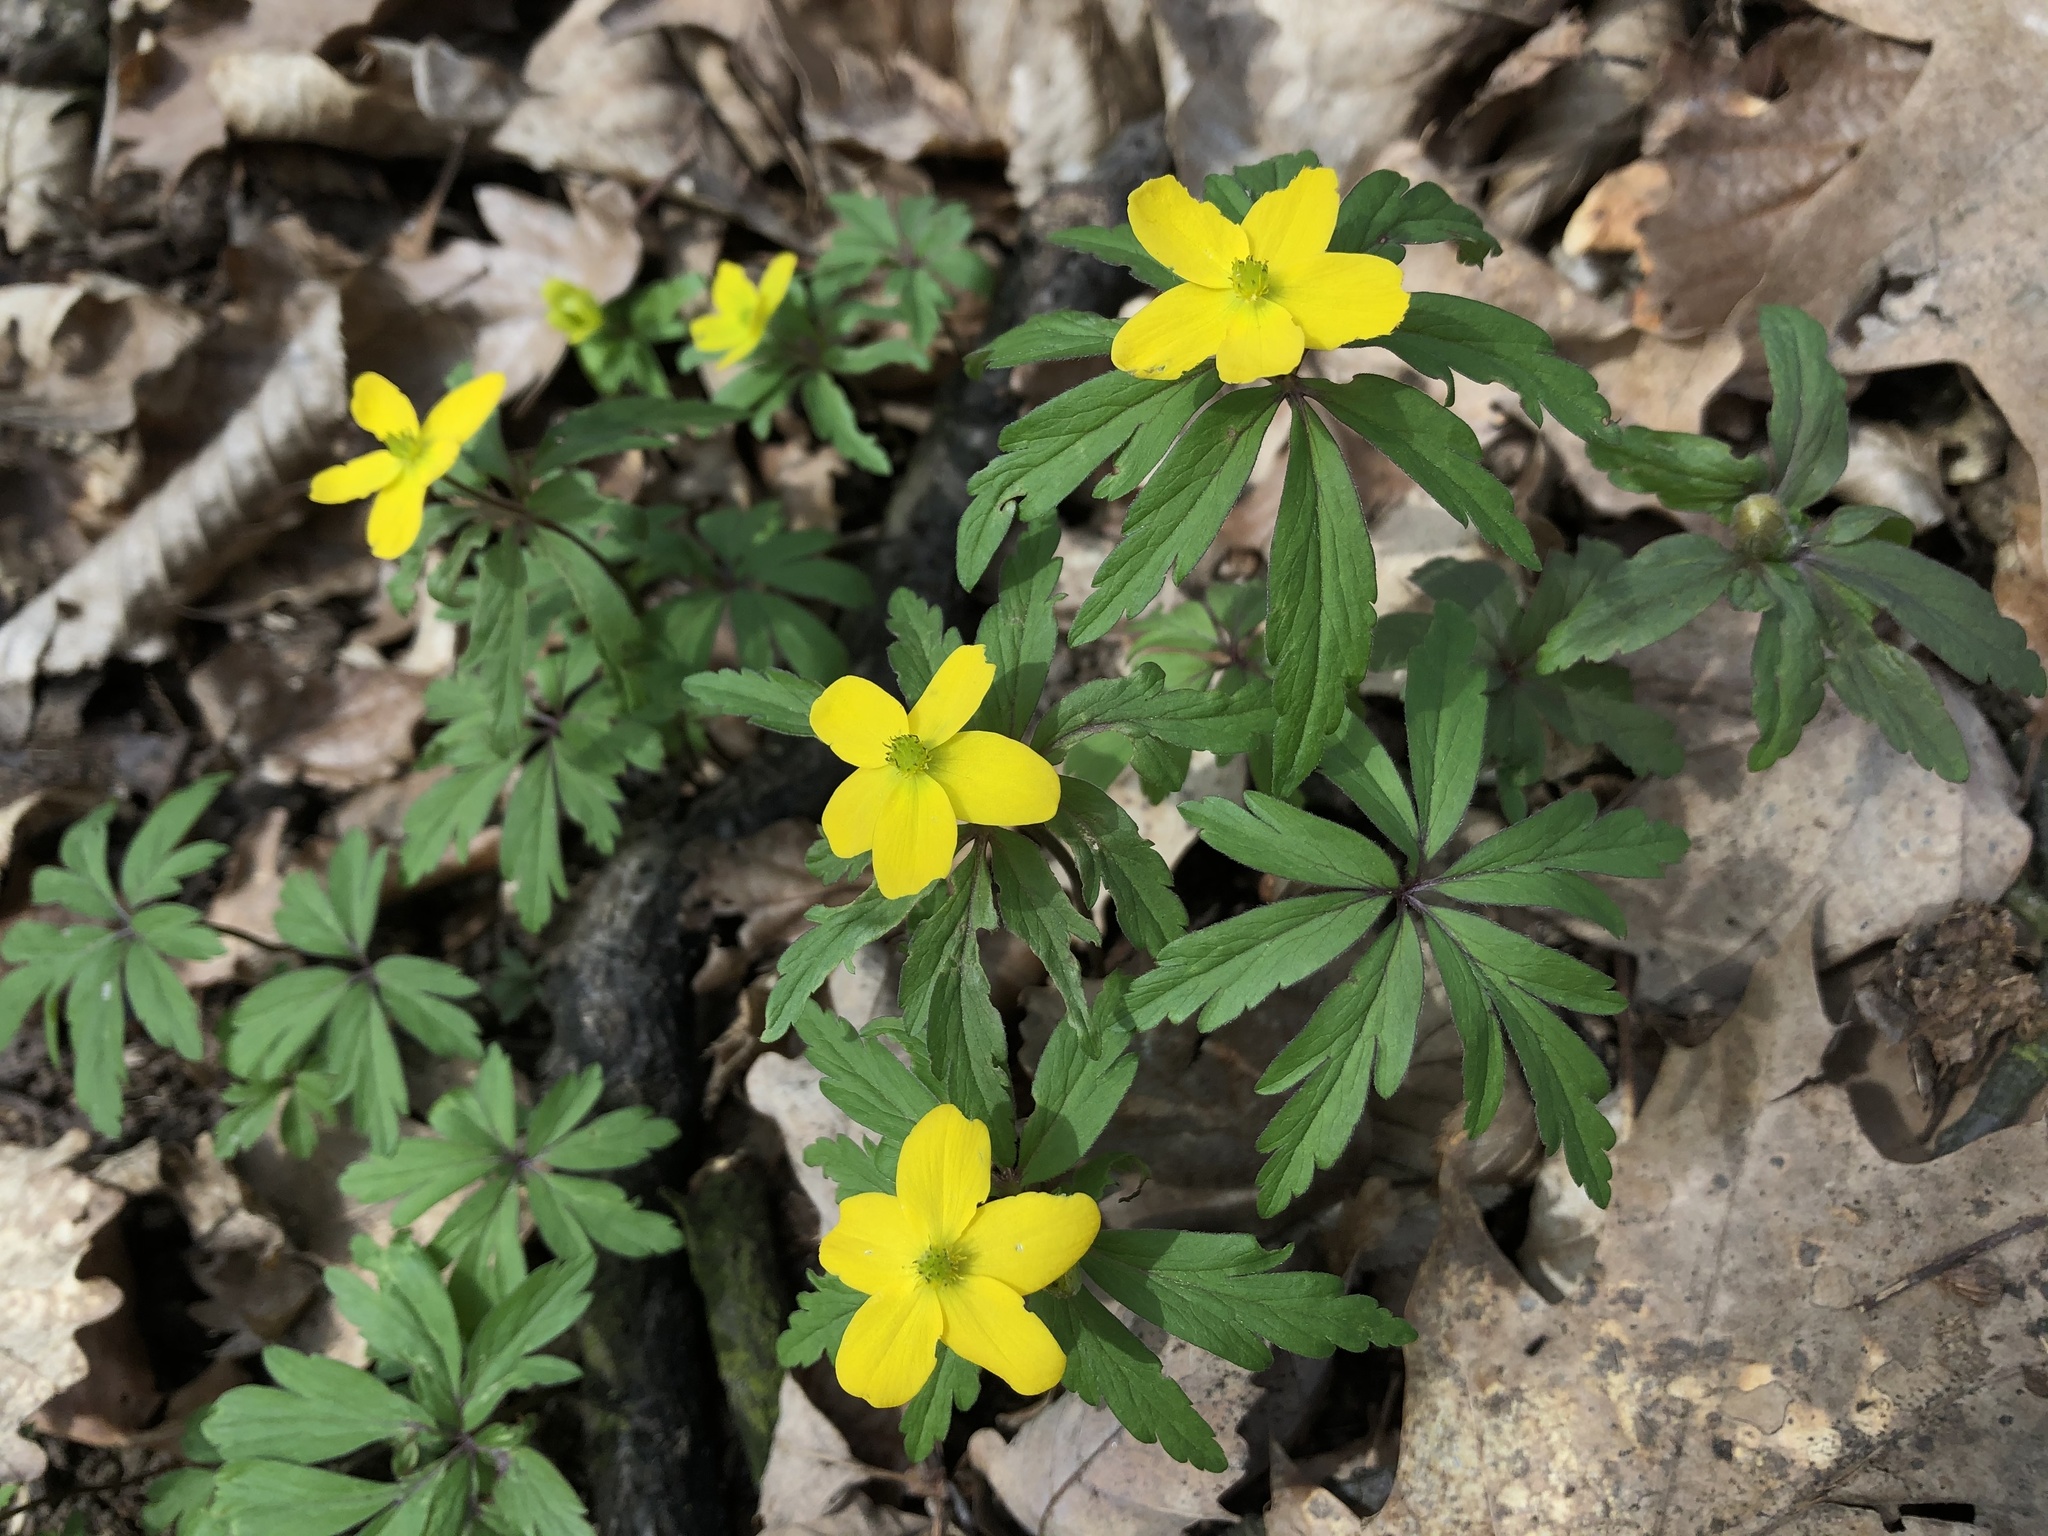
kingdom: Plantae
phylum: Tracheophyta
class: Magnoliopsida
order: Ranunculales
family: Ranunculaceae
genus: Anemone
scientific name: Anemone ranunculoides
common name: Yellow anemone
